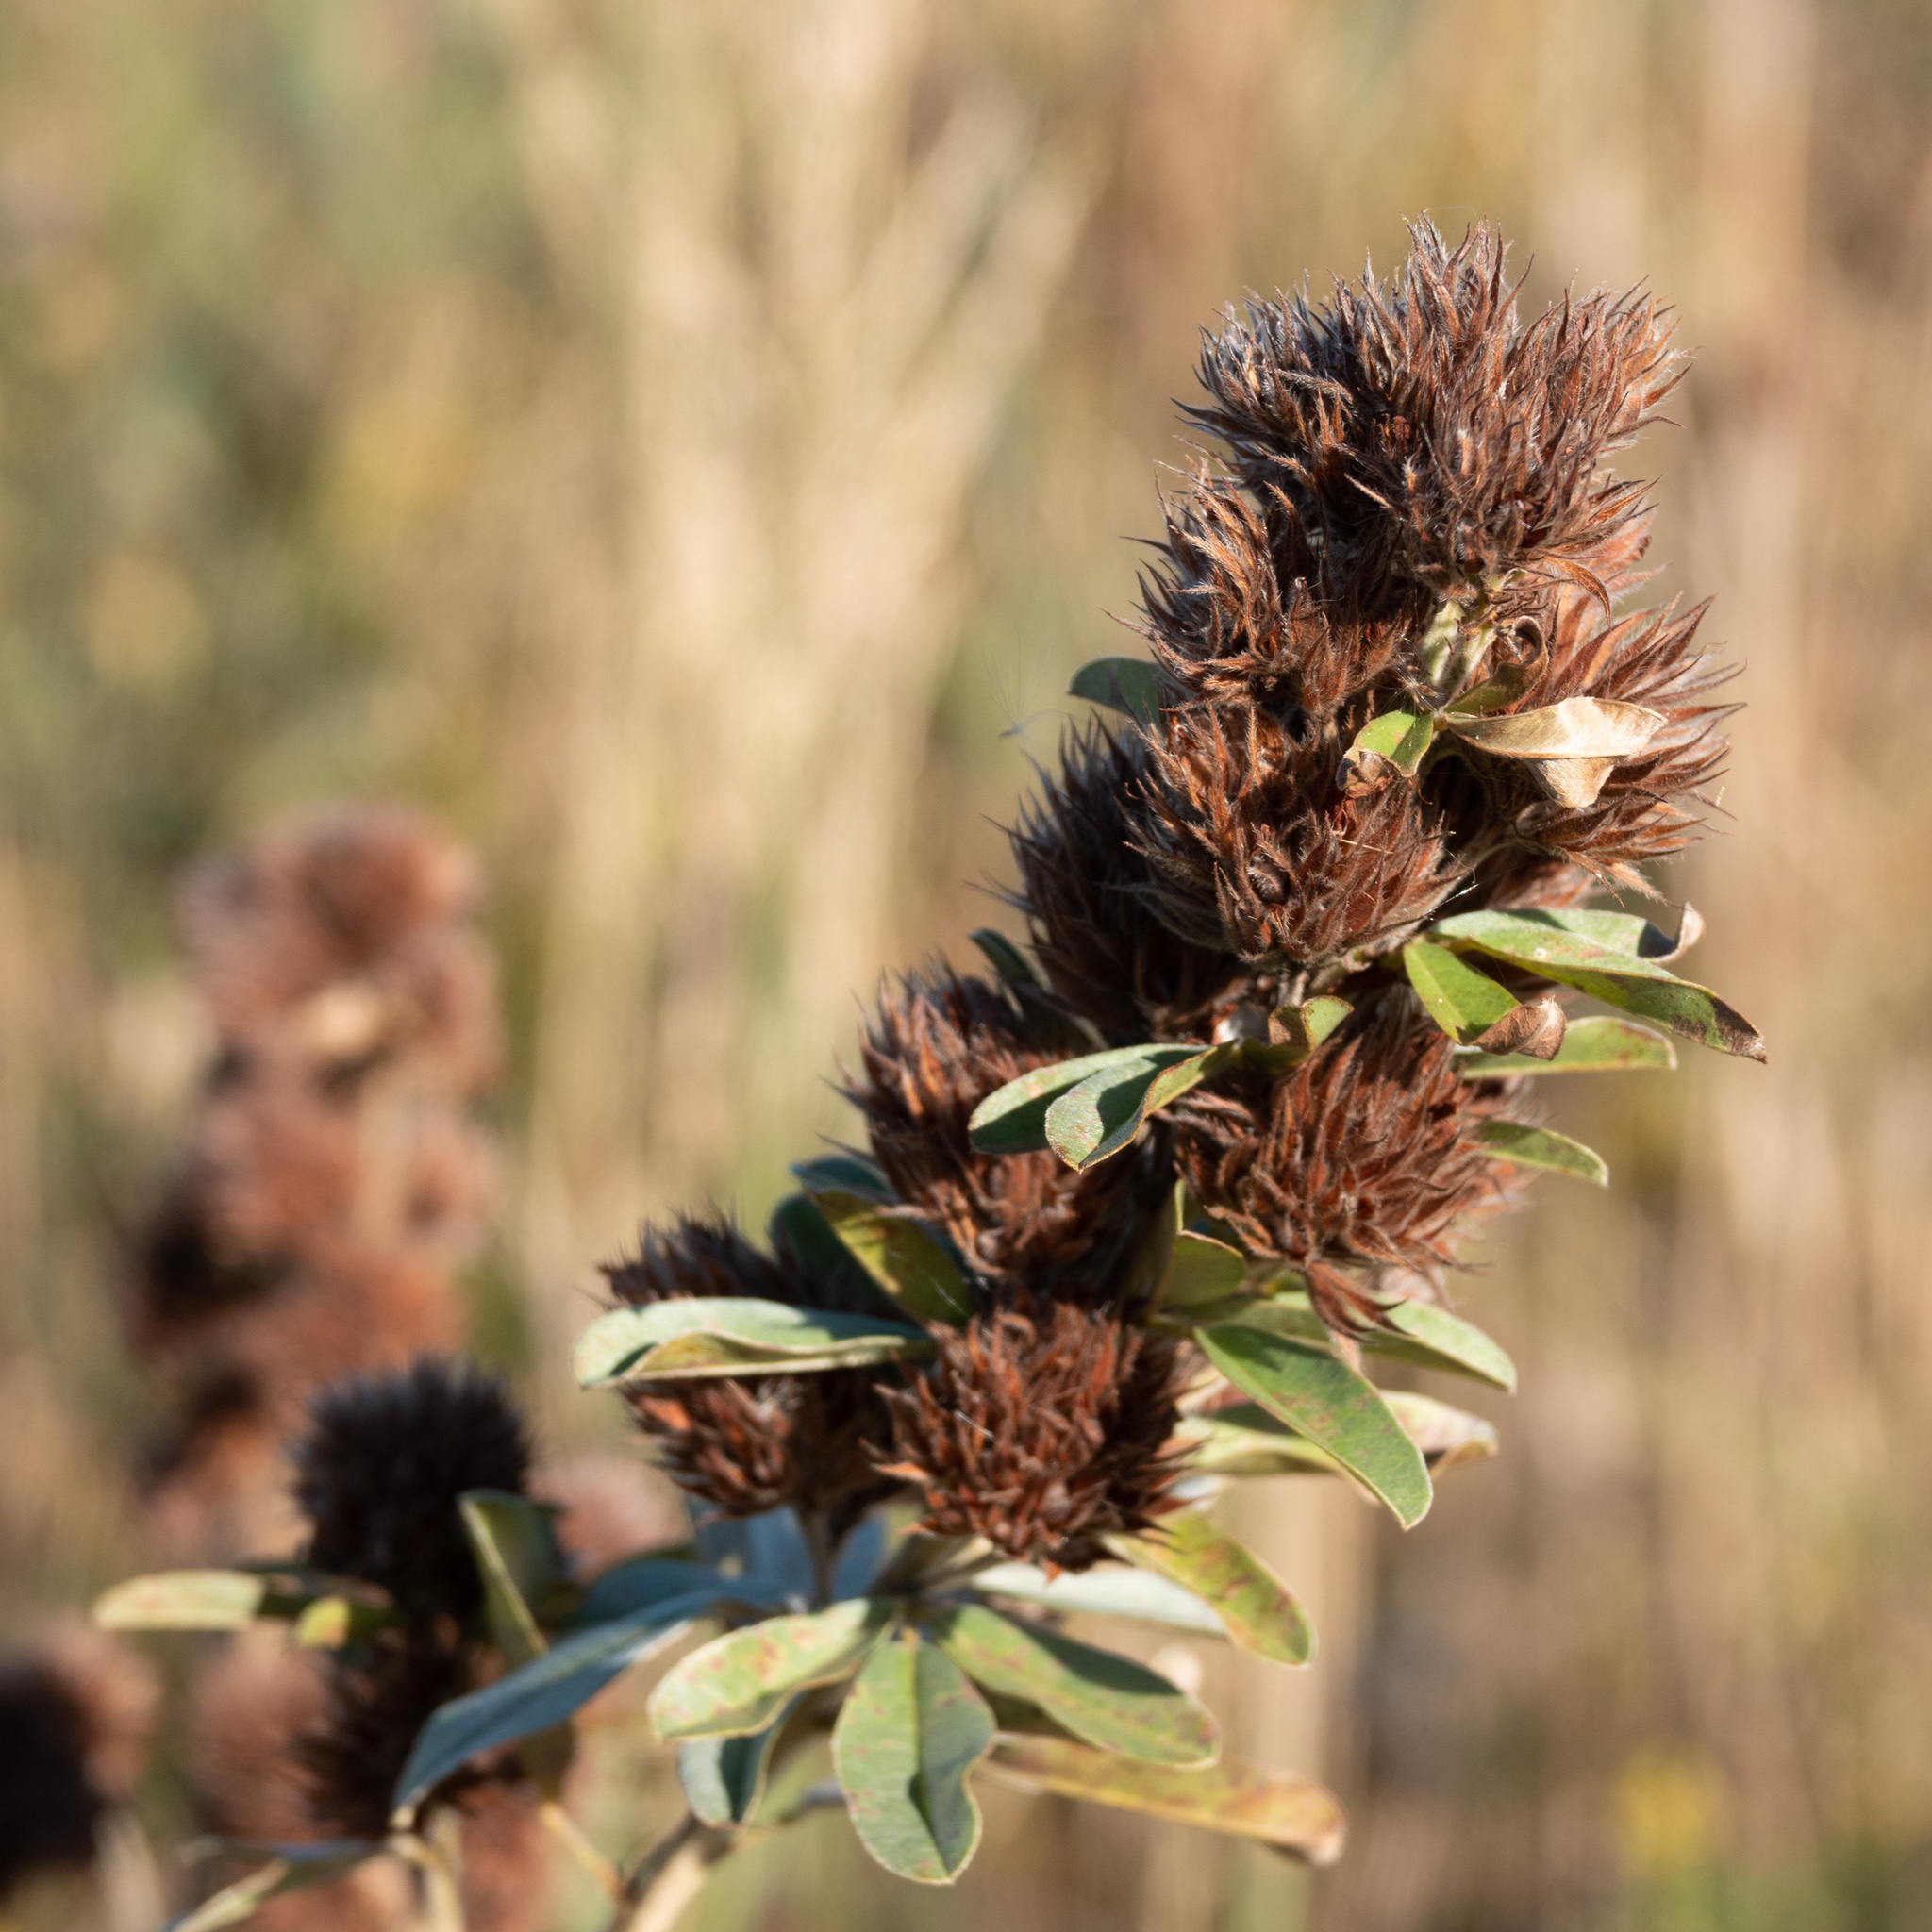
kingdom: Plantae
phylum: Tracheophyta
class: Magnoliopsida
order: Fabales
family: Fabaceae
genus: Lespedeza
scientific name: Lespedeza capitata
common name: Dusty clover
